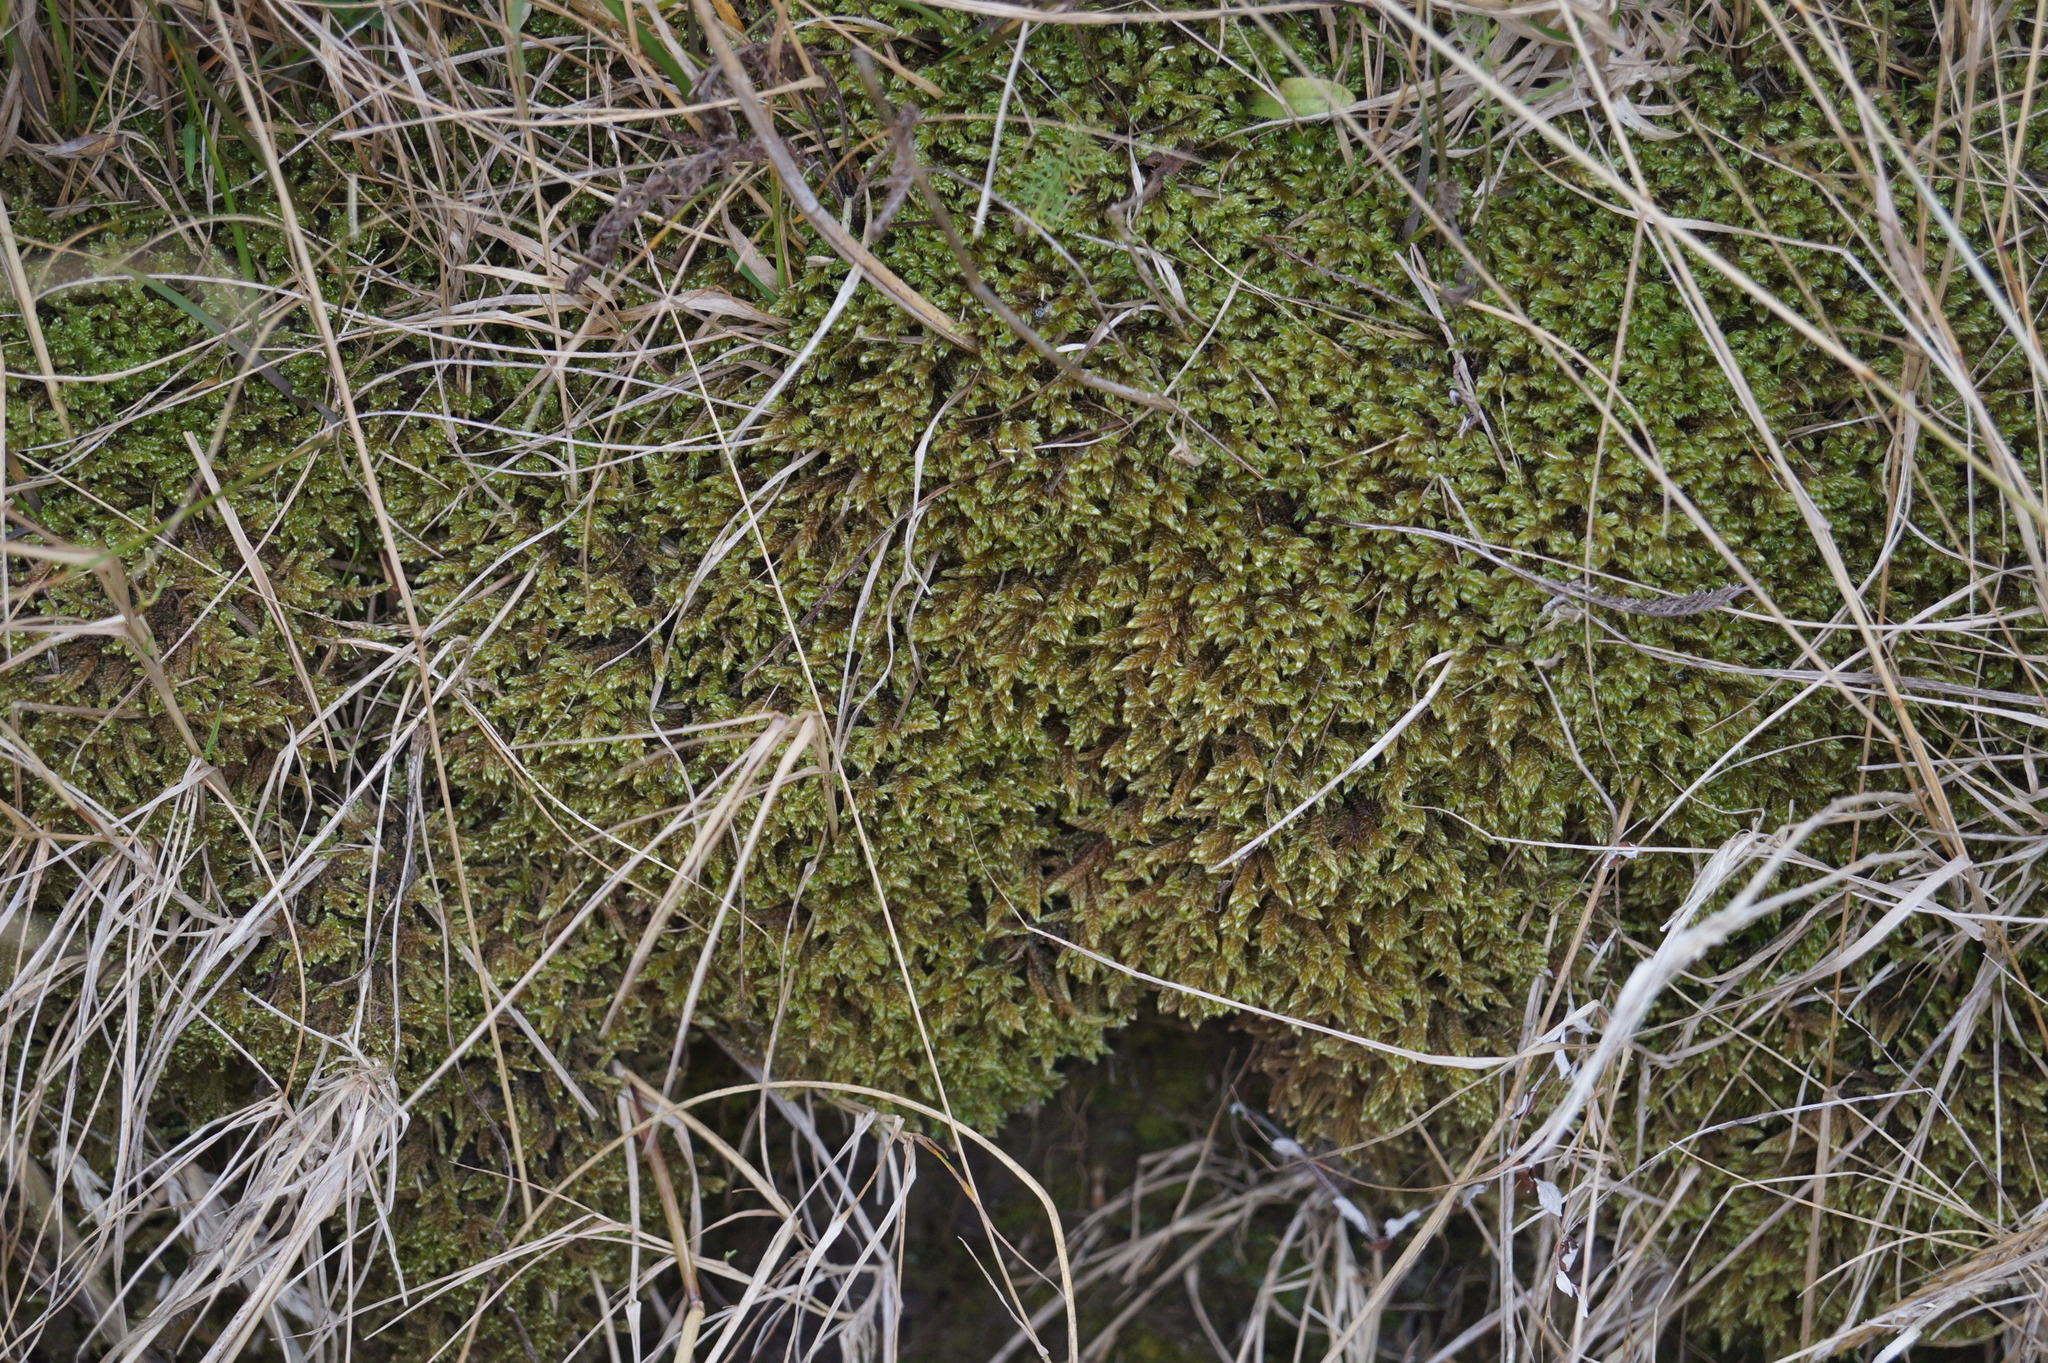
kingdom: Plantae
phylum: Bryophyta
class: Bryopsida
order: Hypnales
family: Hypnaceae
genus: Hypnum
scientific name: Hypnum cupressiforme
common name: Cypress-leaved plait-moss
